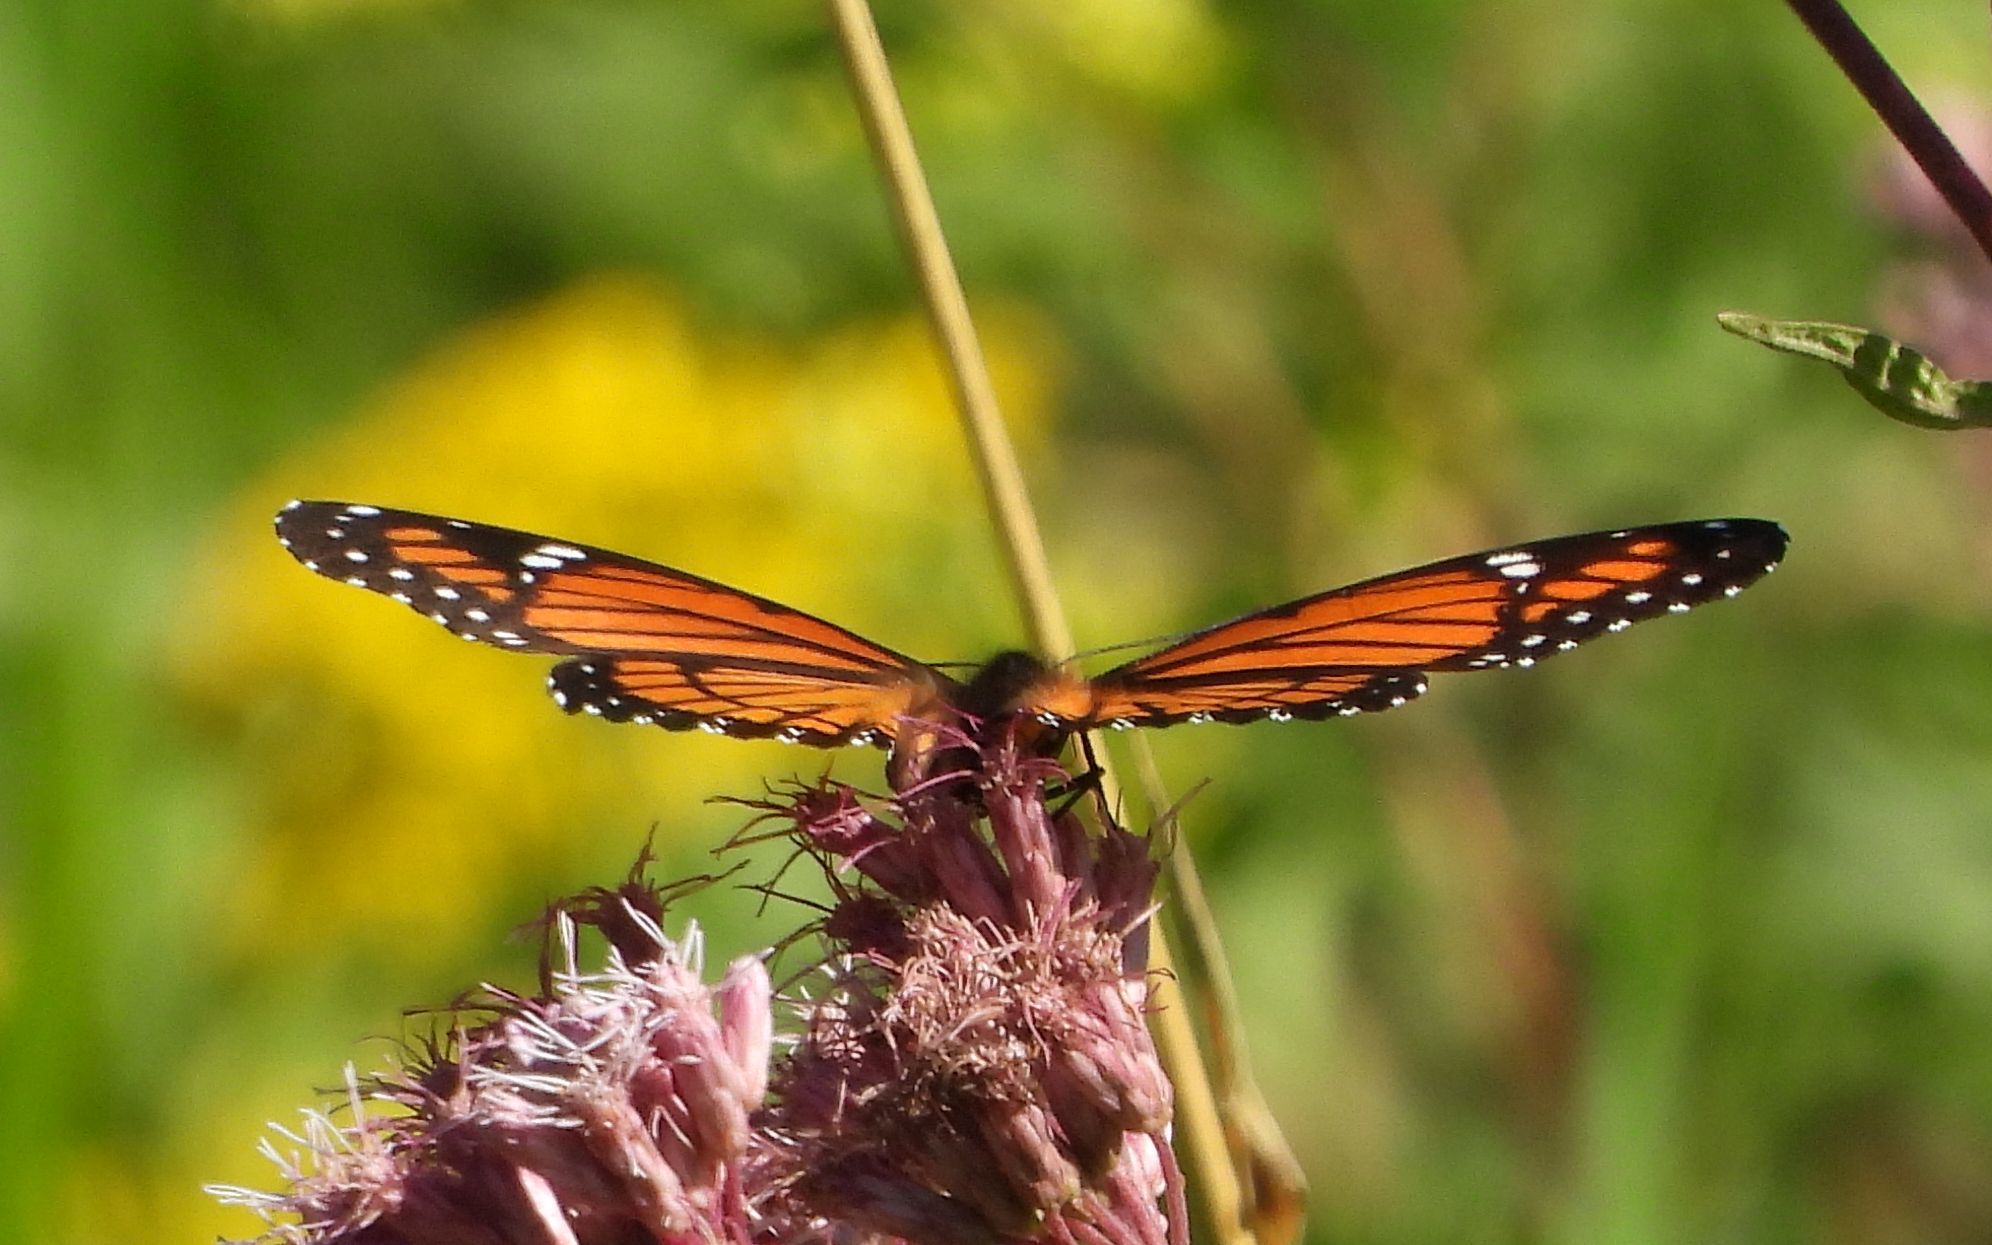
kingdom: Animalia
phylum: Arthropoda
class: Insecta
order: Lepidoptera
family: Nymphalidae
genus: Limenitis
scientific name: Limenitis archippus
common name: Viceroy
